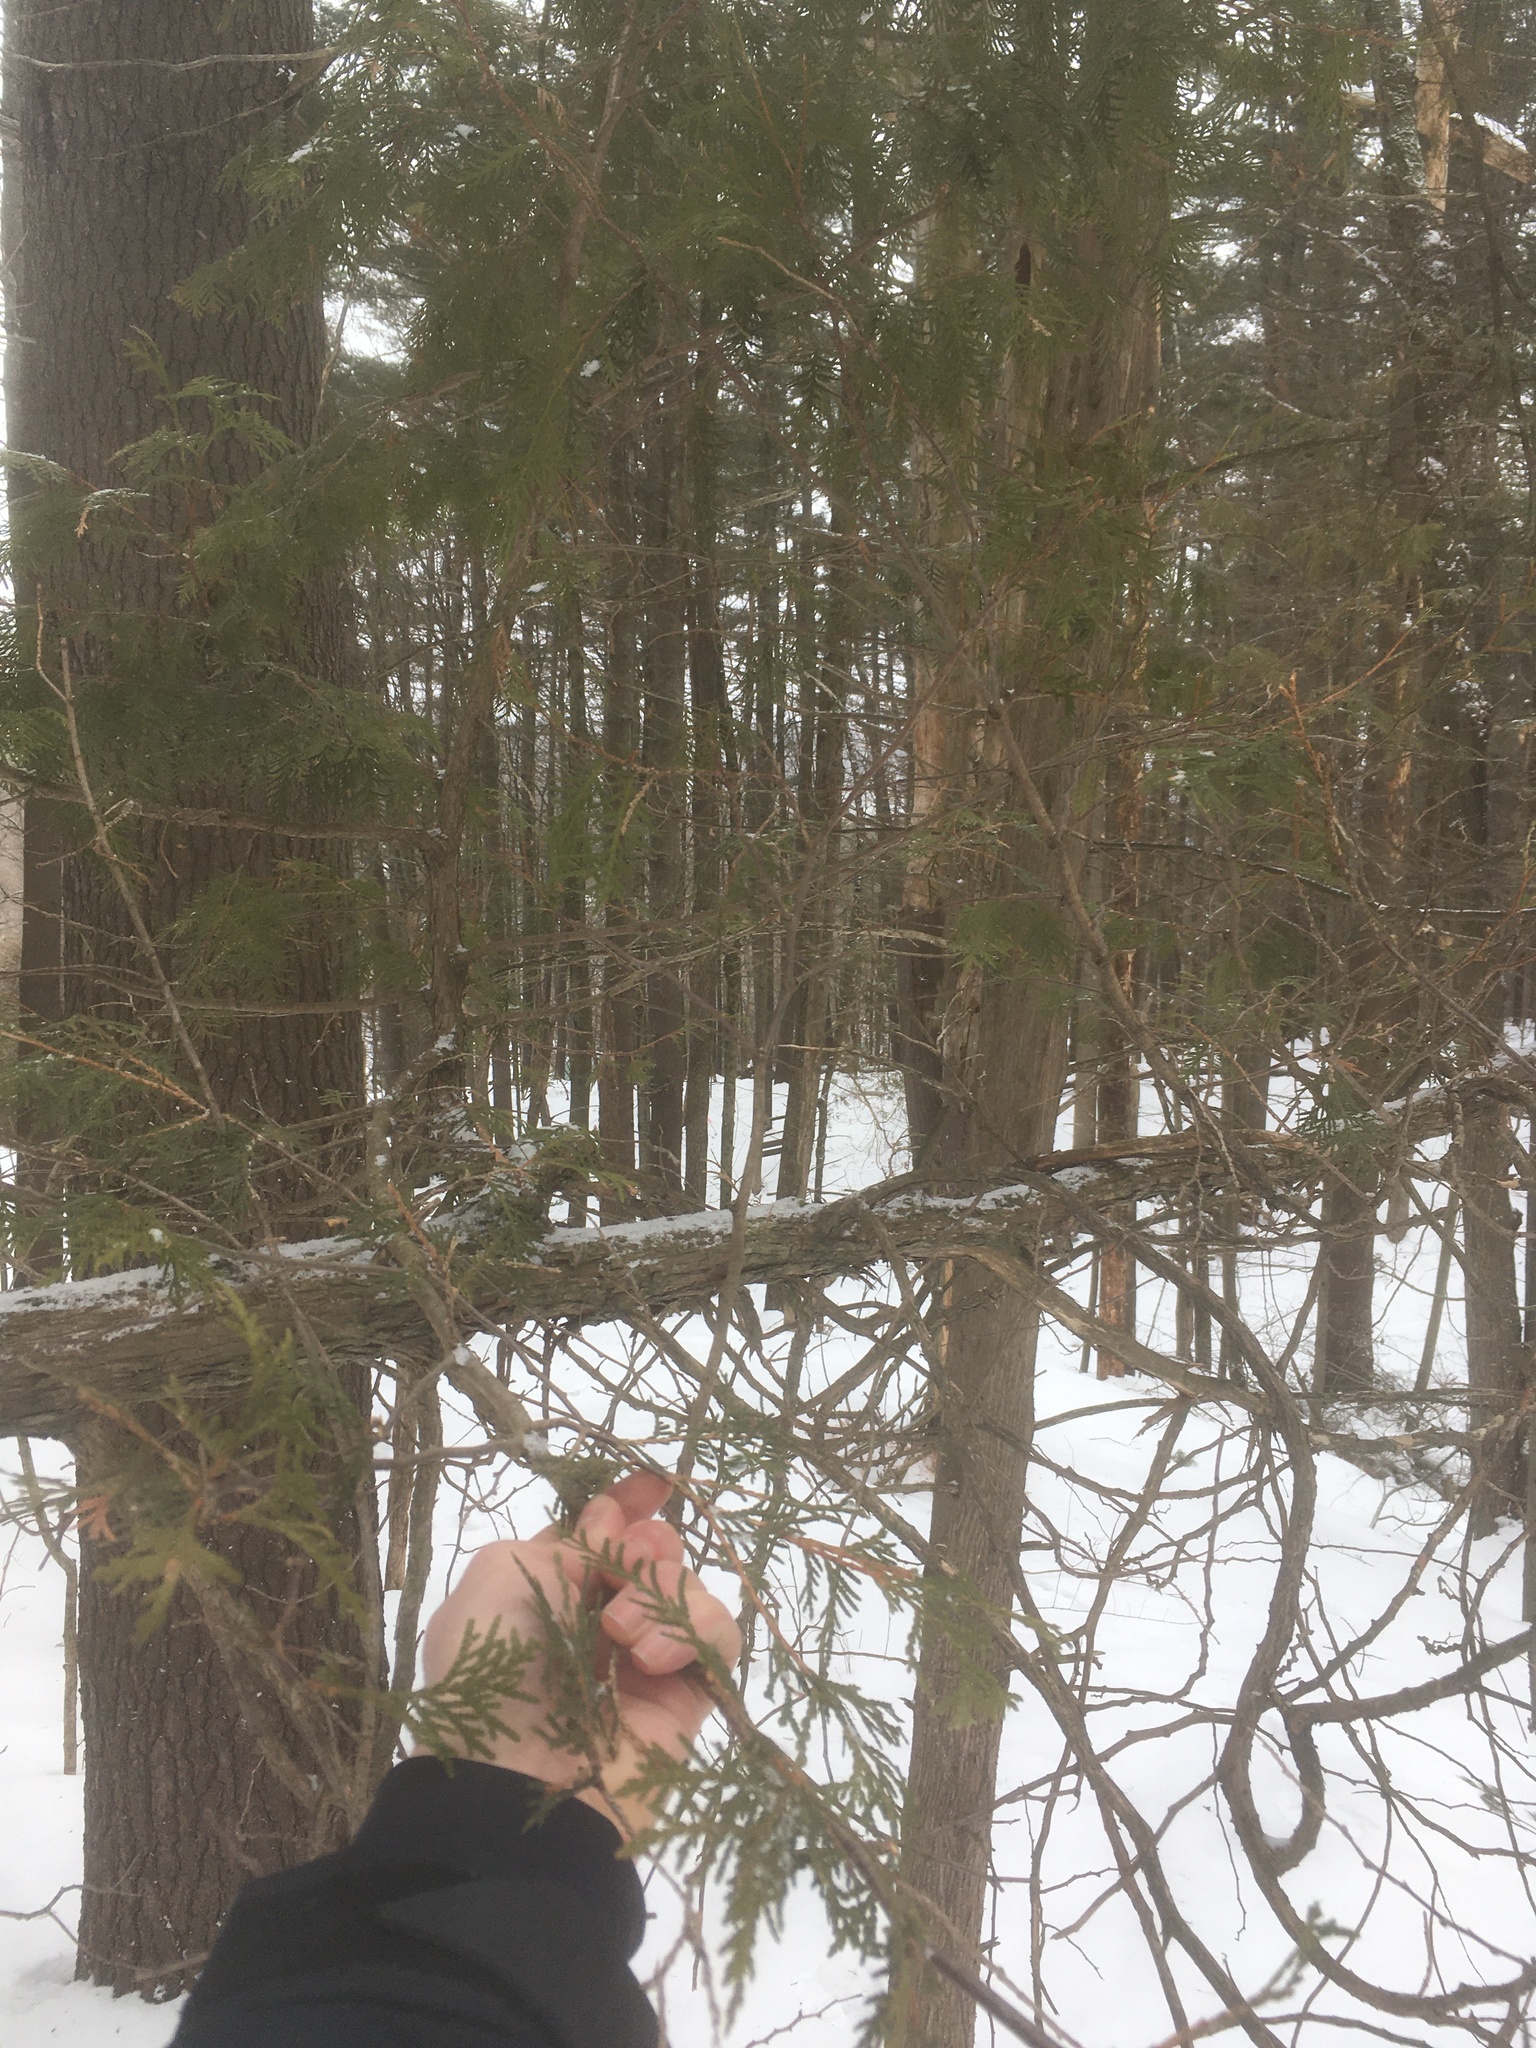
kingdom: Plantae
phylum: Tracheophyta
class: Pinopsida
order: Pinales
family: Cupressaceae
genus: Thuja
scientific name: Thuja occidentalis
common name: Northern white-cedar
